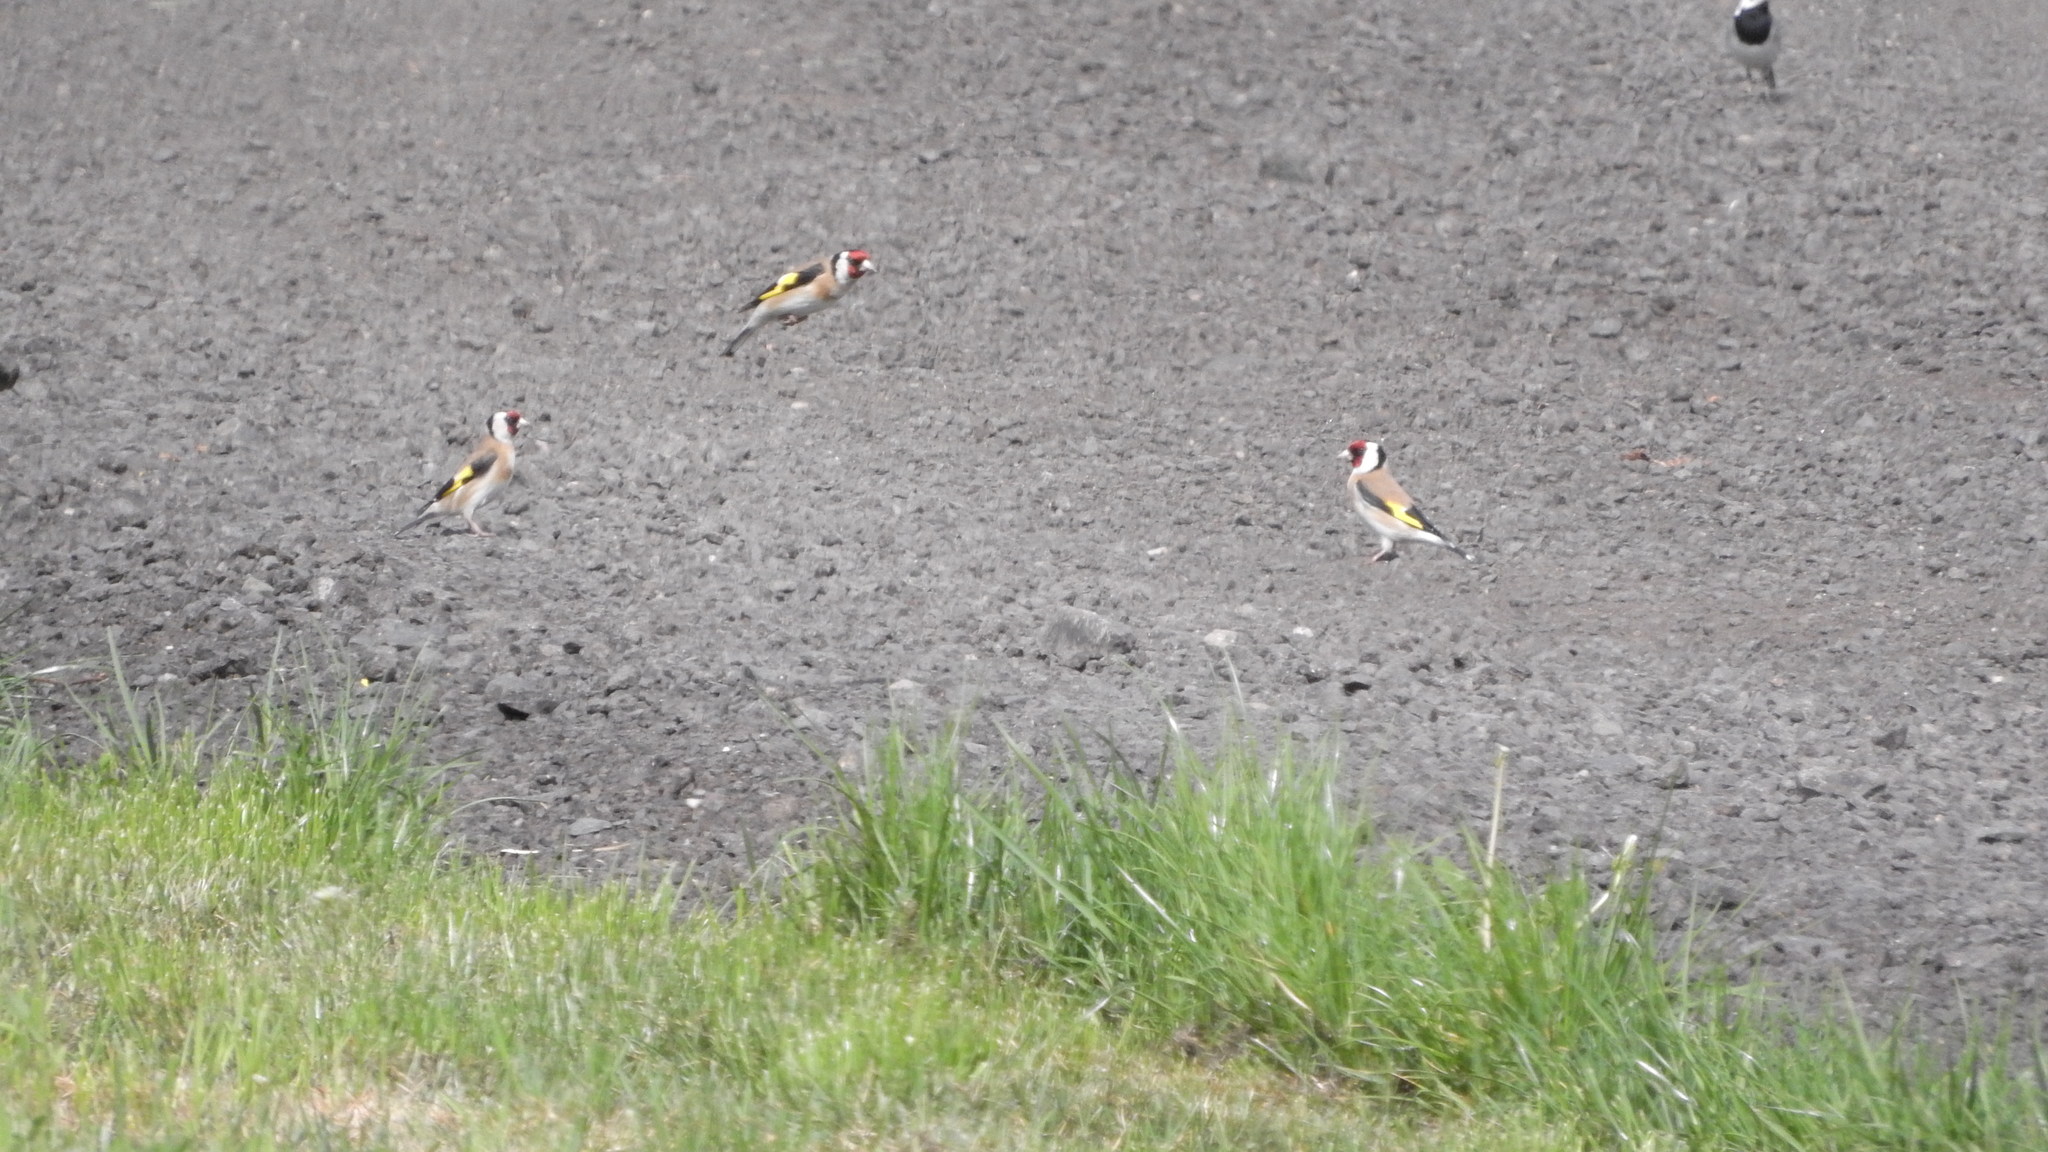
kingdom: Animalia
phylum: Chordata
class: Aves
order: Passeriformes
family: Fringillidae
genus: Carduelis
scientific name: Carduelis carduelis
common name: European goldfinch
